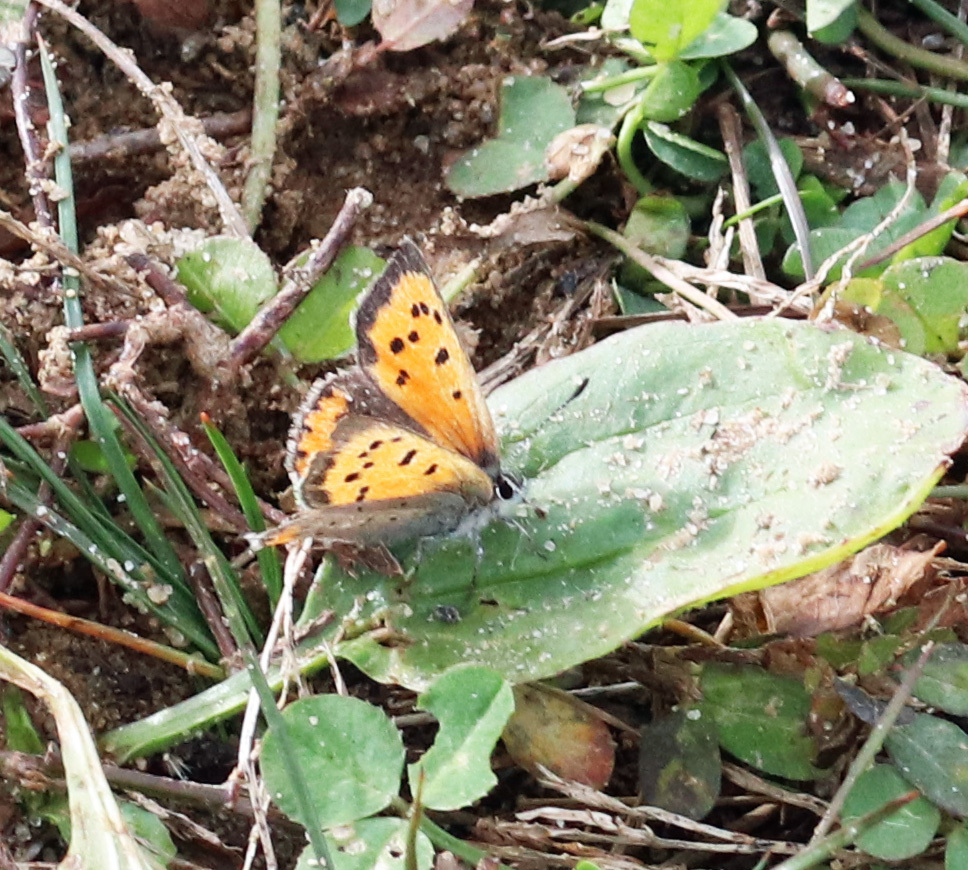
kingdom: Animalia
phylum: Arthropoda
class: Insecta
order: Lepidoptera
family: Lycaenidae
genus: Lycaena
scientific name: Lycaena hypophlaeas
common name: American copper
